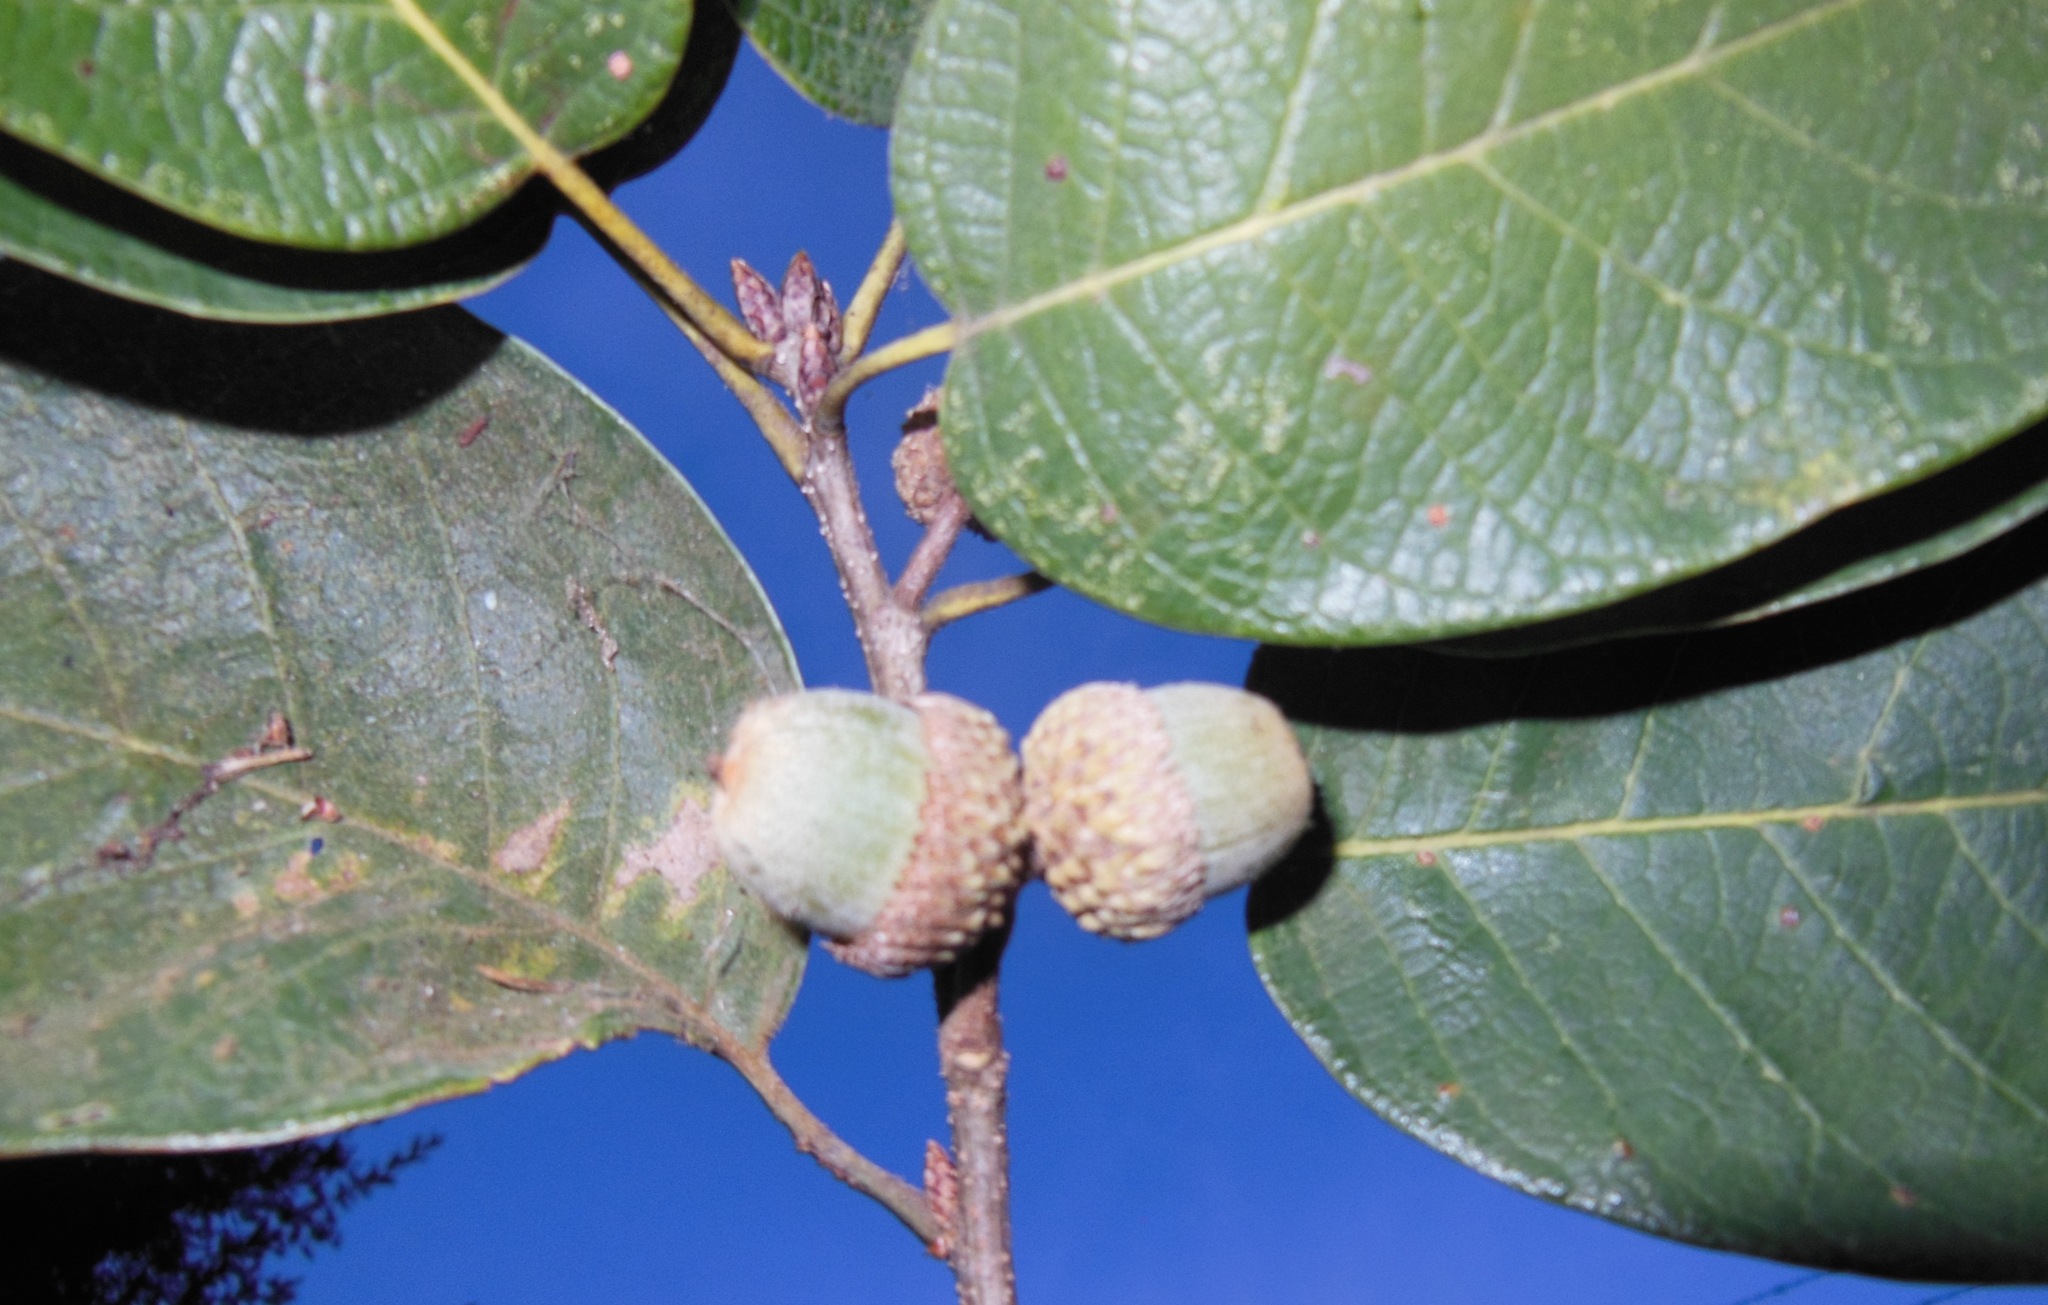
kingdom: Plantae
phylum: Tracheophyta
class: Magnoliopsida
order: Fagales
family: Fagaceae
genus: Quercus
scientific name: Quercus polymorpha
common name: Mexican white oak
